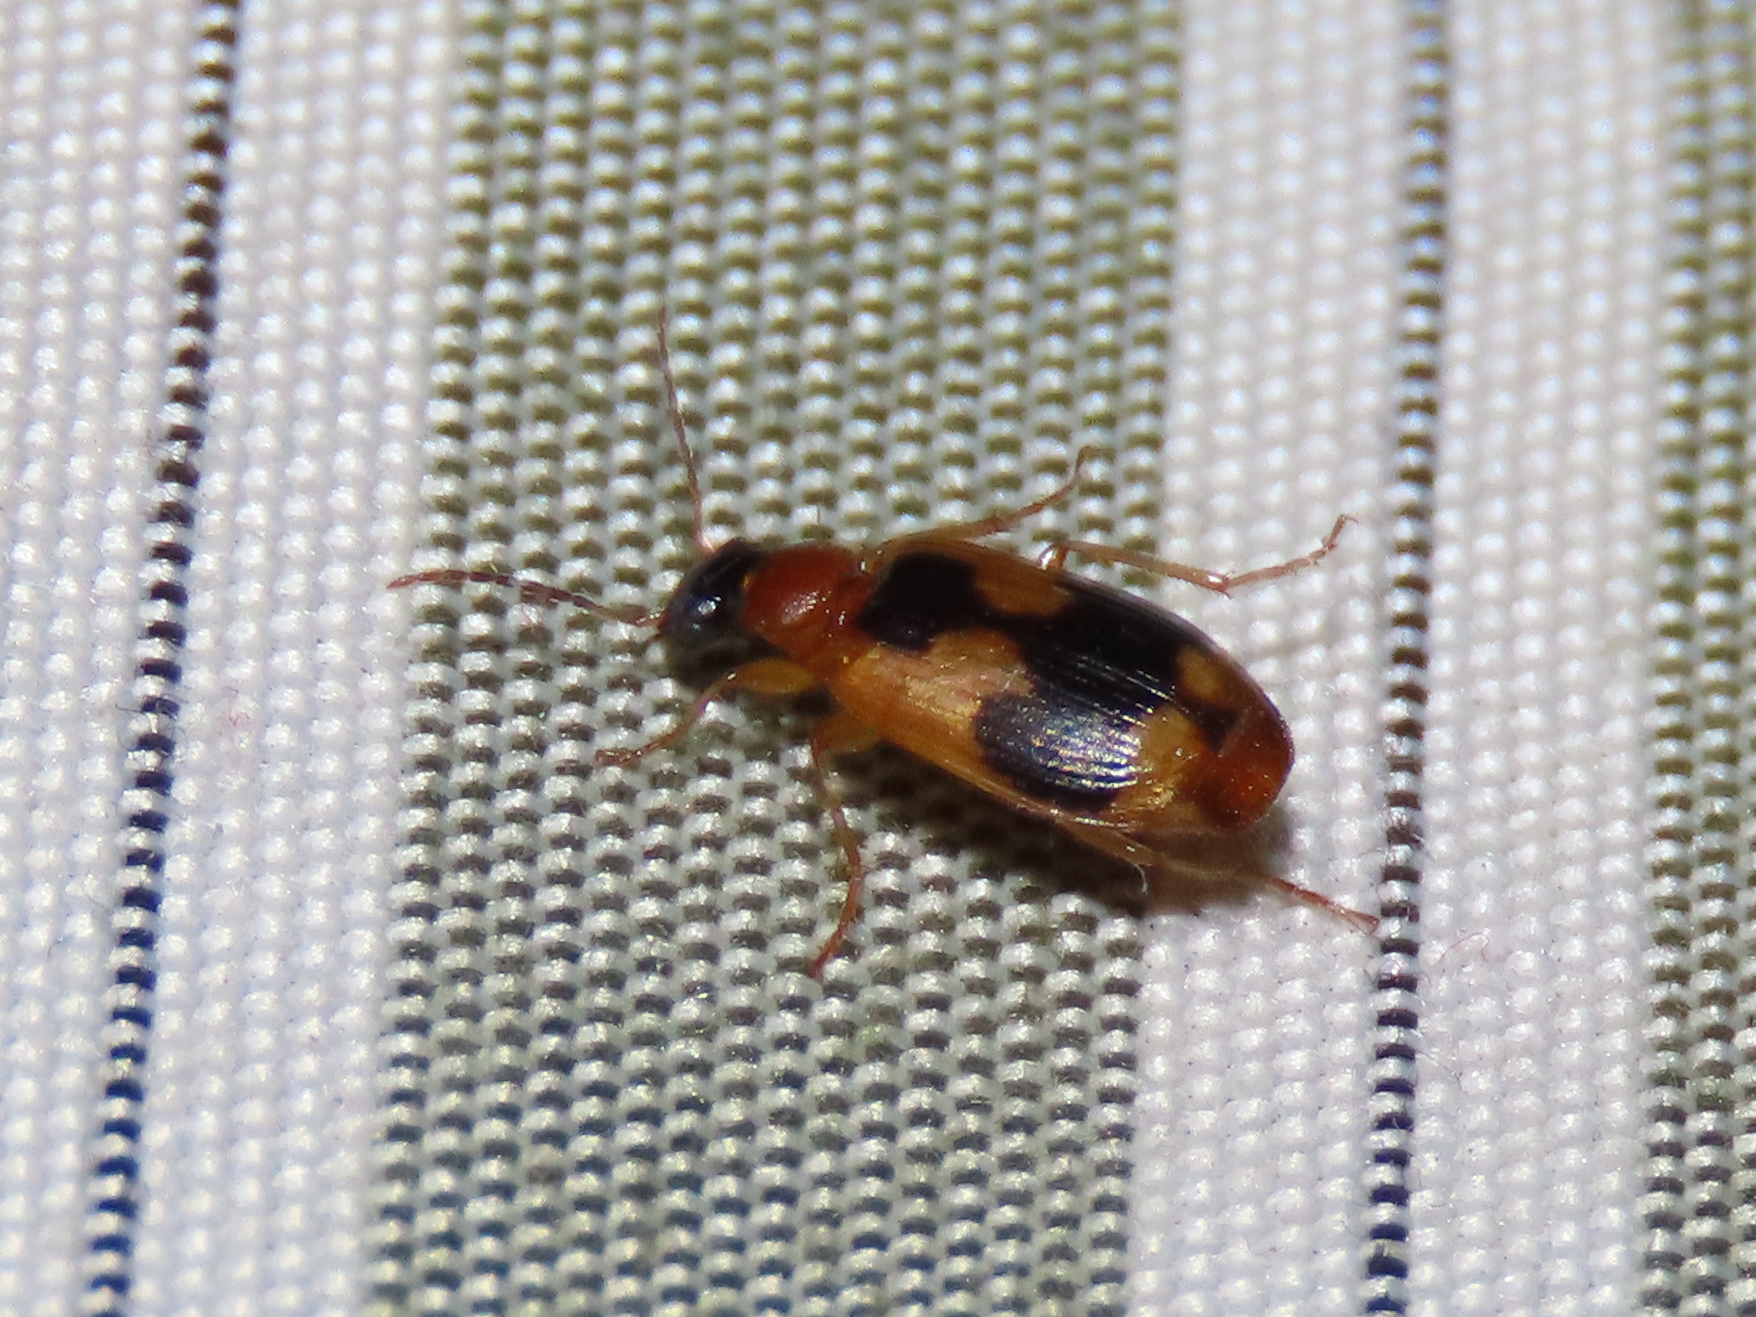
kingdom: Animalia
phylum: Arthropoda
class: Insecta
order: Coleoptera
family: Carabidae
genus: Lebia
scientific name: Lebia analis
